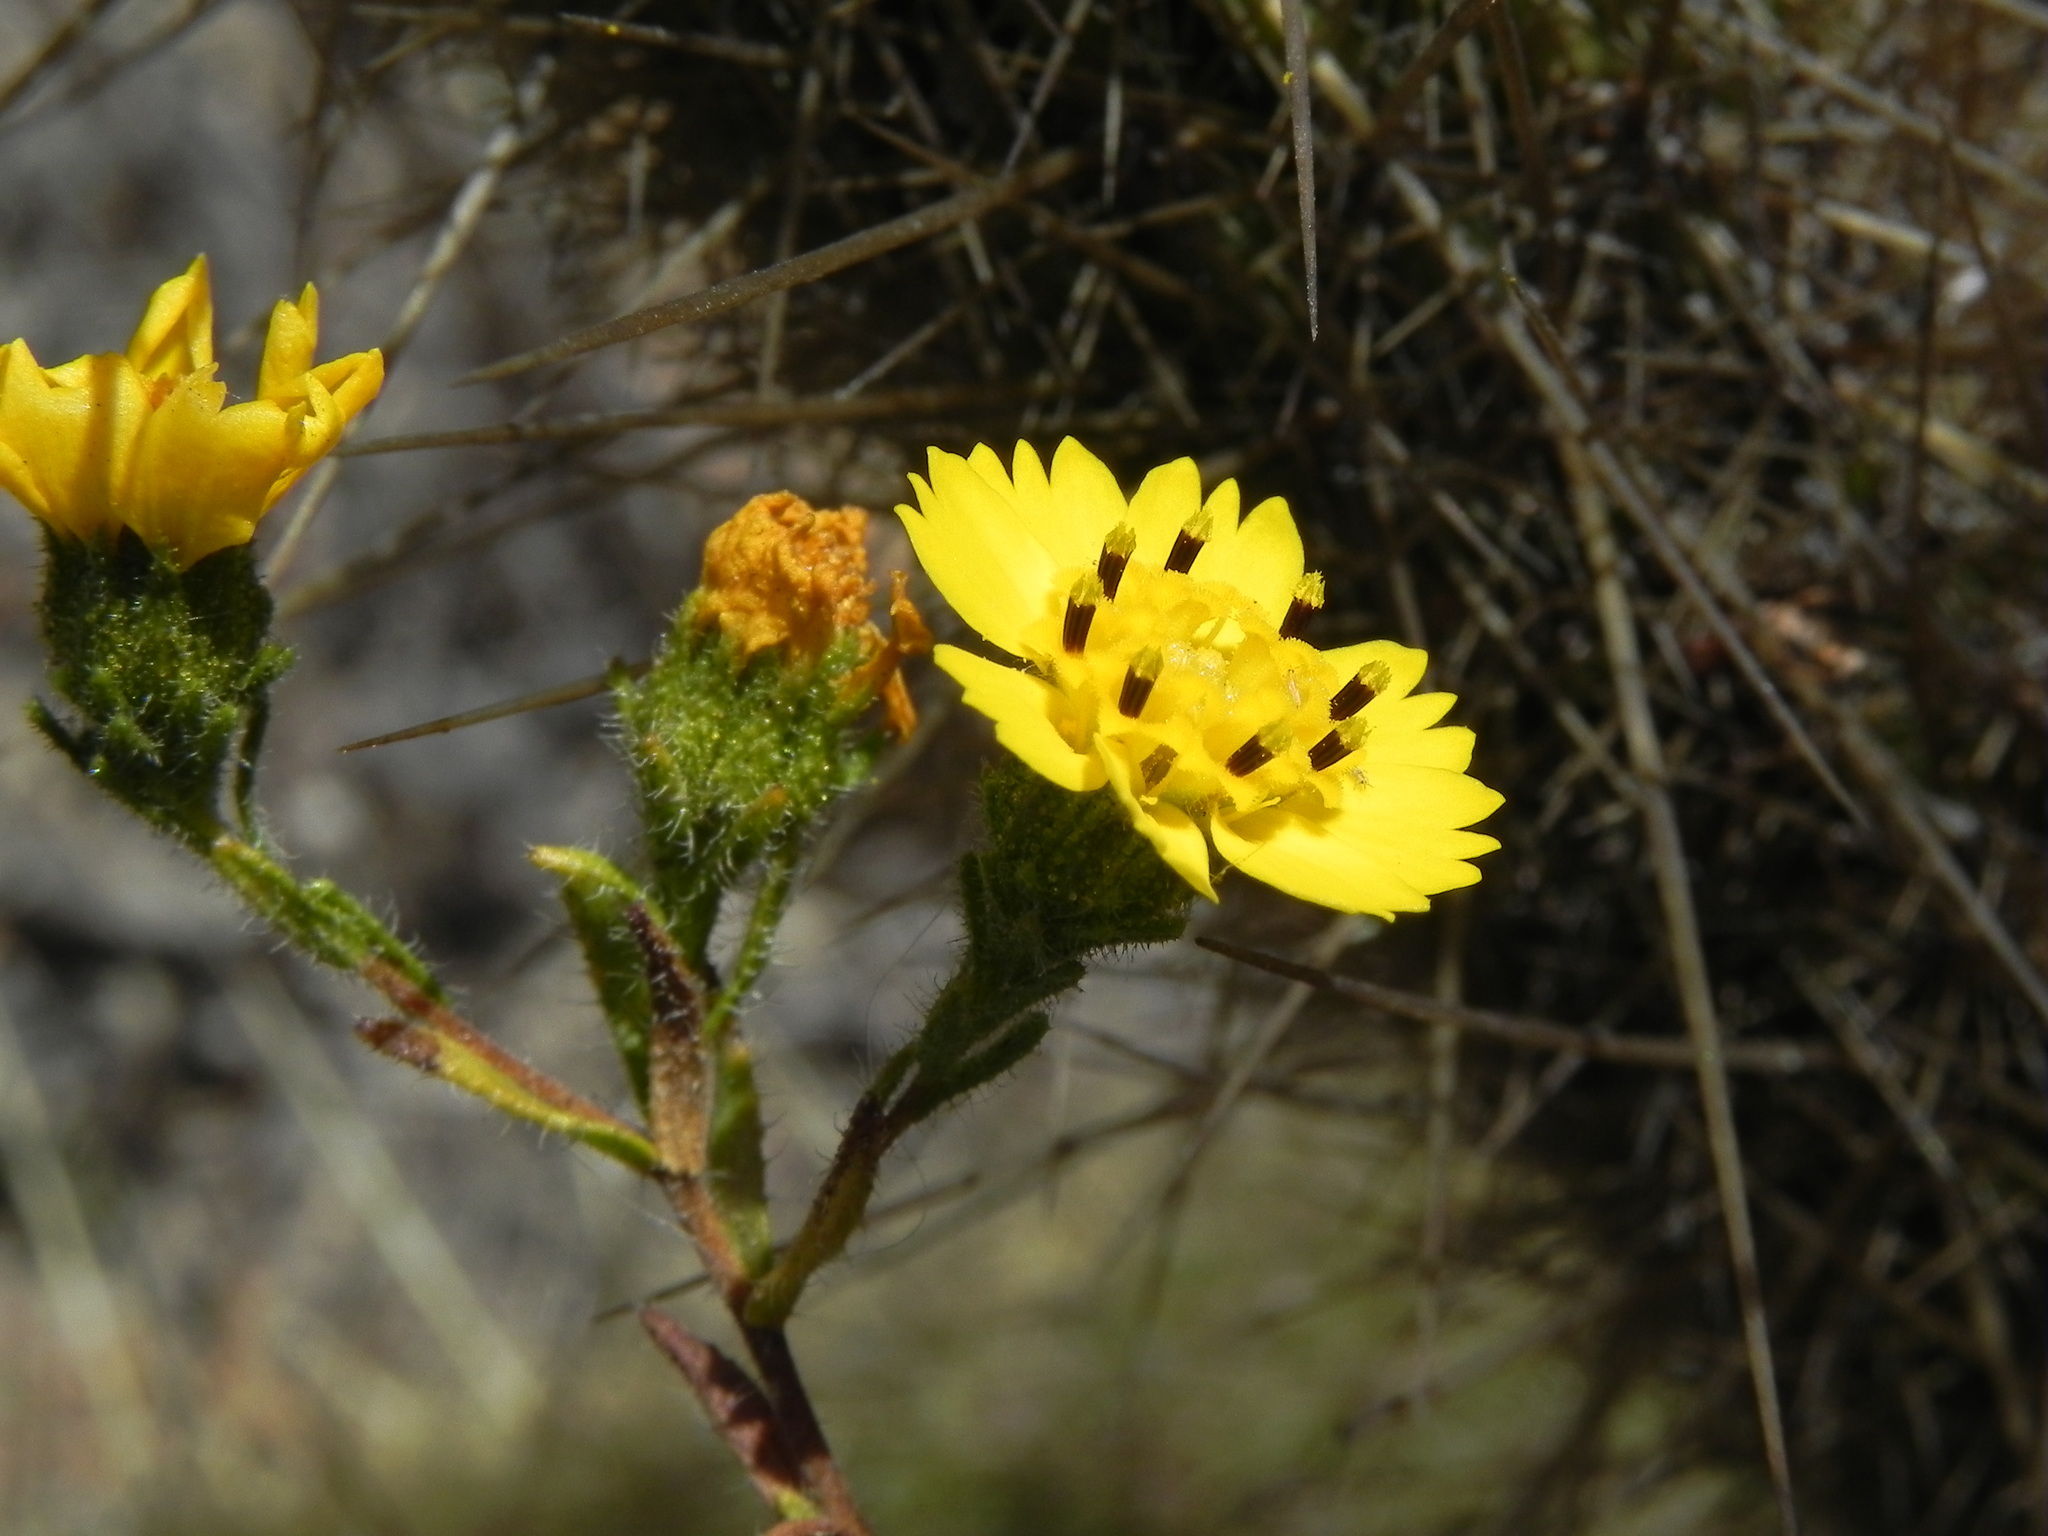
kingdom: Plantae
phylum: Tracheophyta
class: Magnoliopsida
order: Asterales
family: Asteraceae
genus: Deinandra
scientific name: Deinandra conjugens
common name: Otay tarplant
